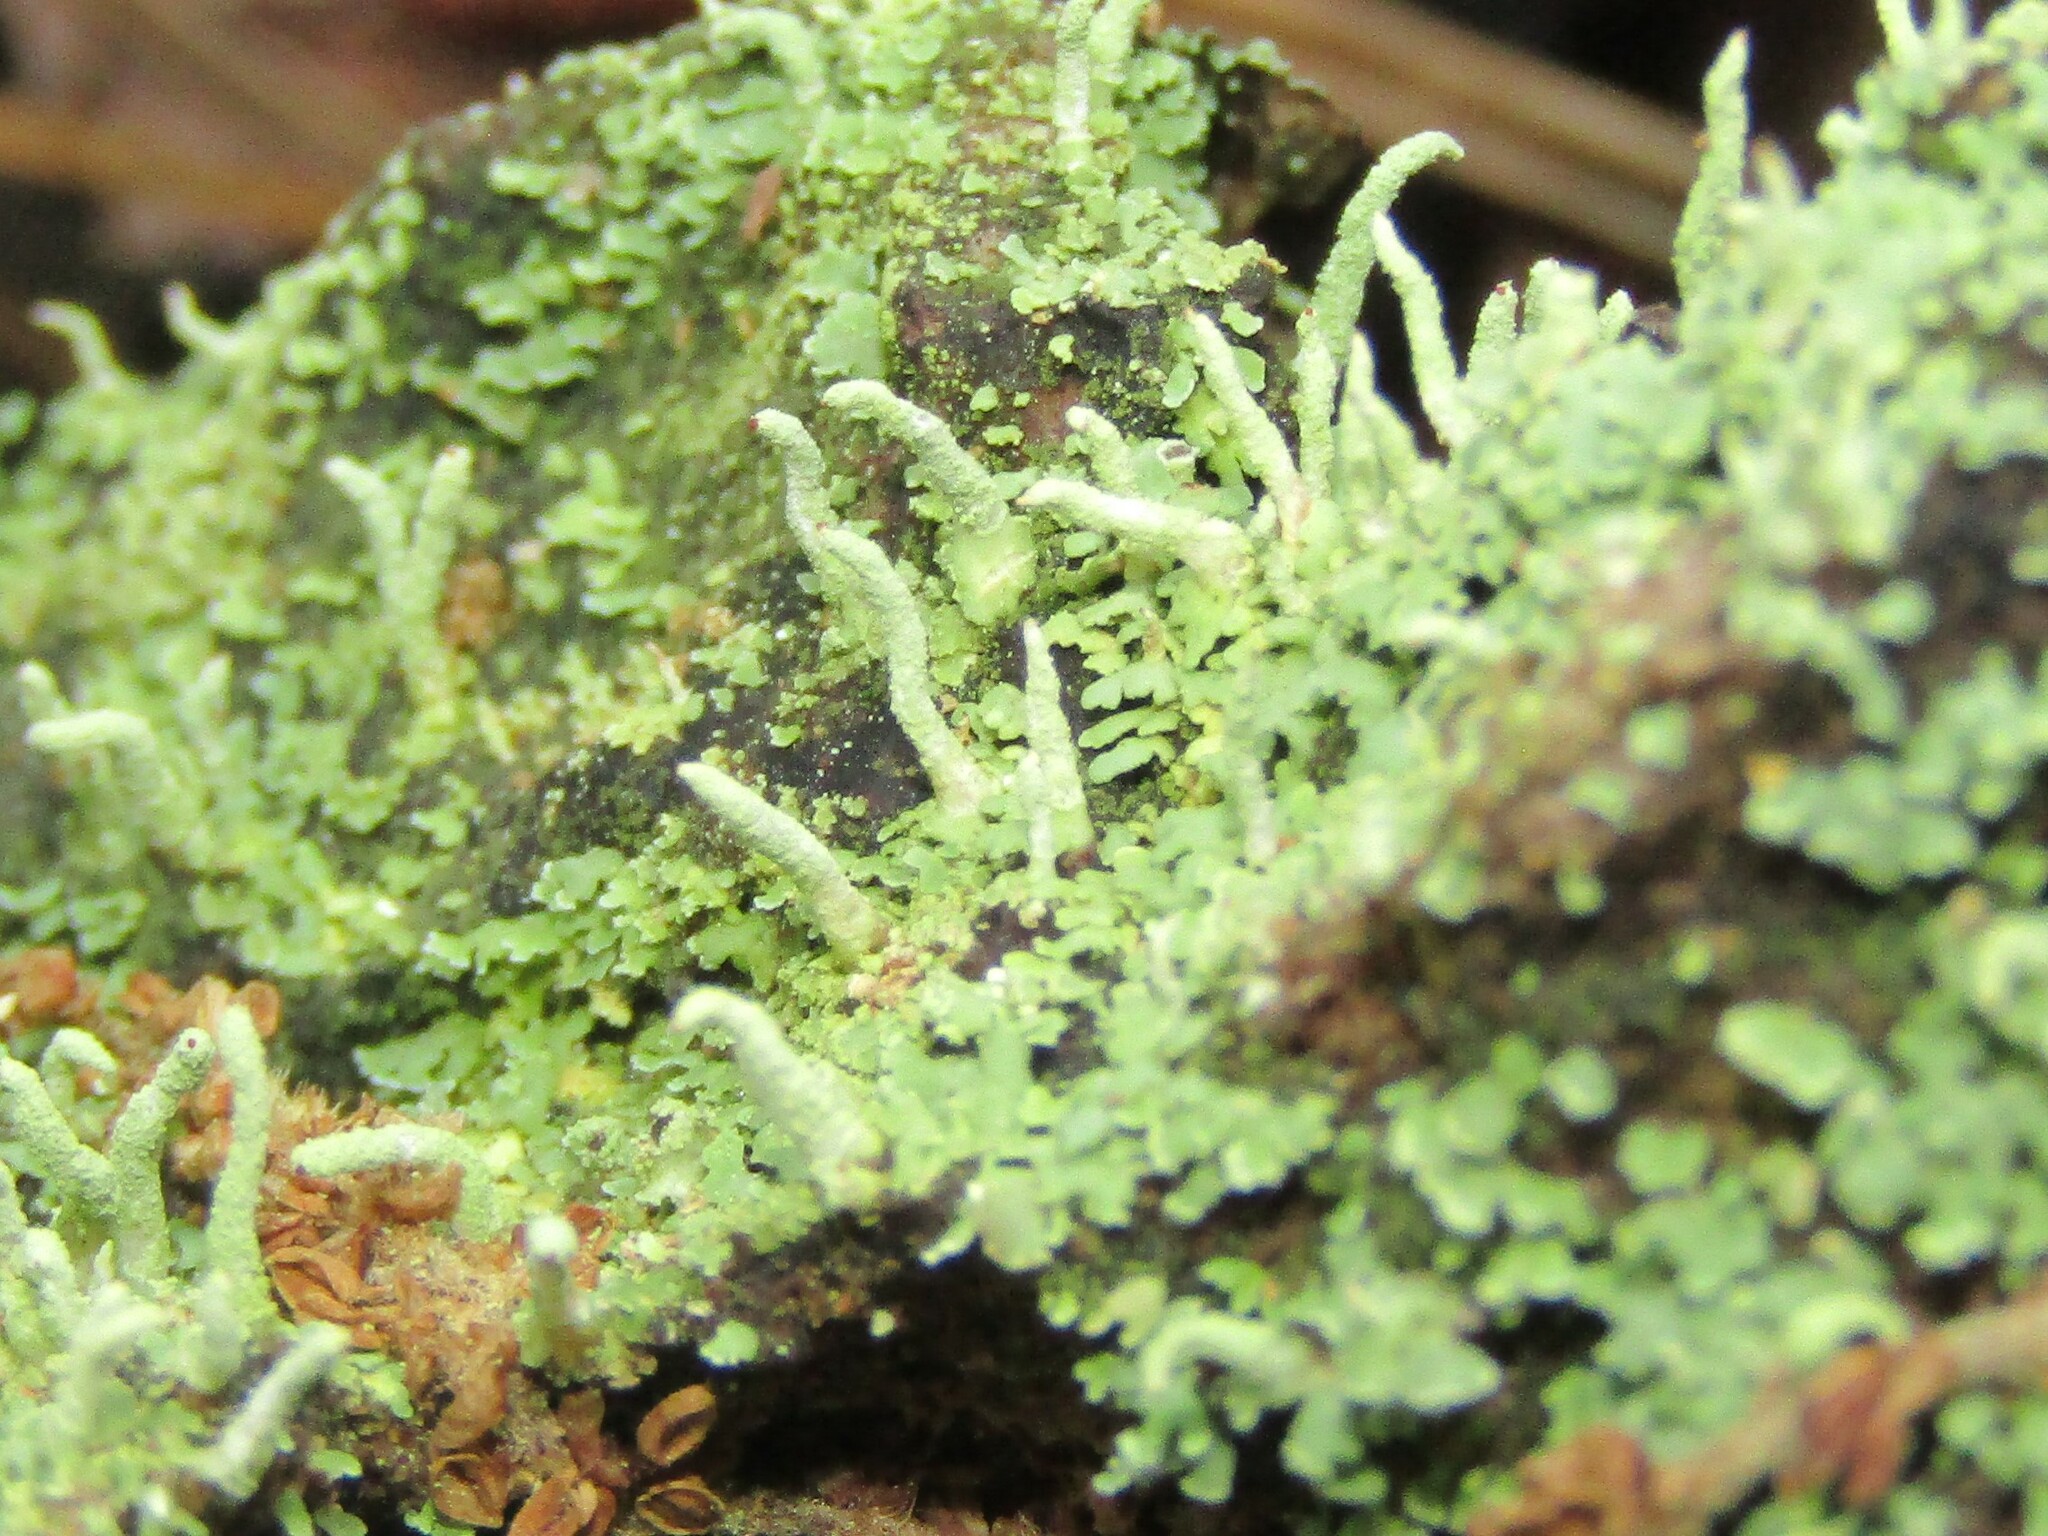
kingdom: Fungi
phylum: Ascomycota
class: Lecanoromycetes
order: Lecanorales
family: Cladoniaceae
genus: Cladonia
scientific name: Cladonia coniocraea
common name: Common powderhorn
